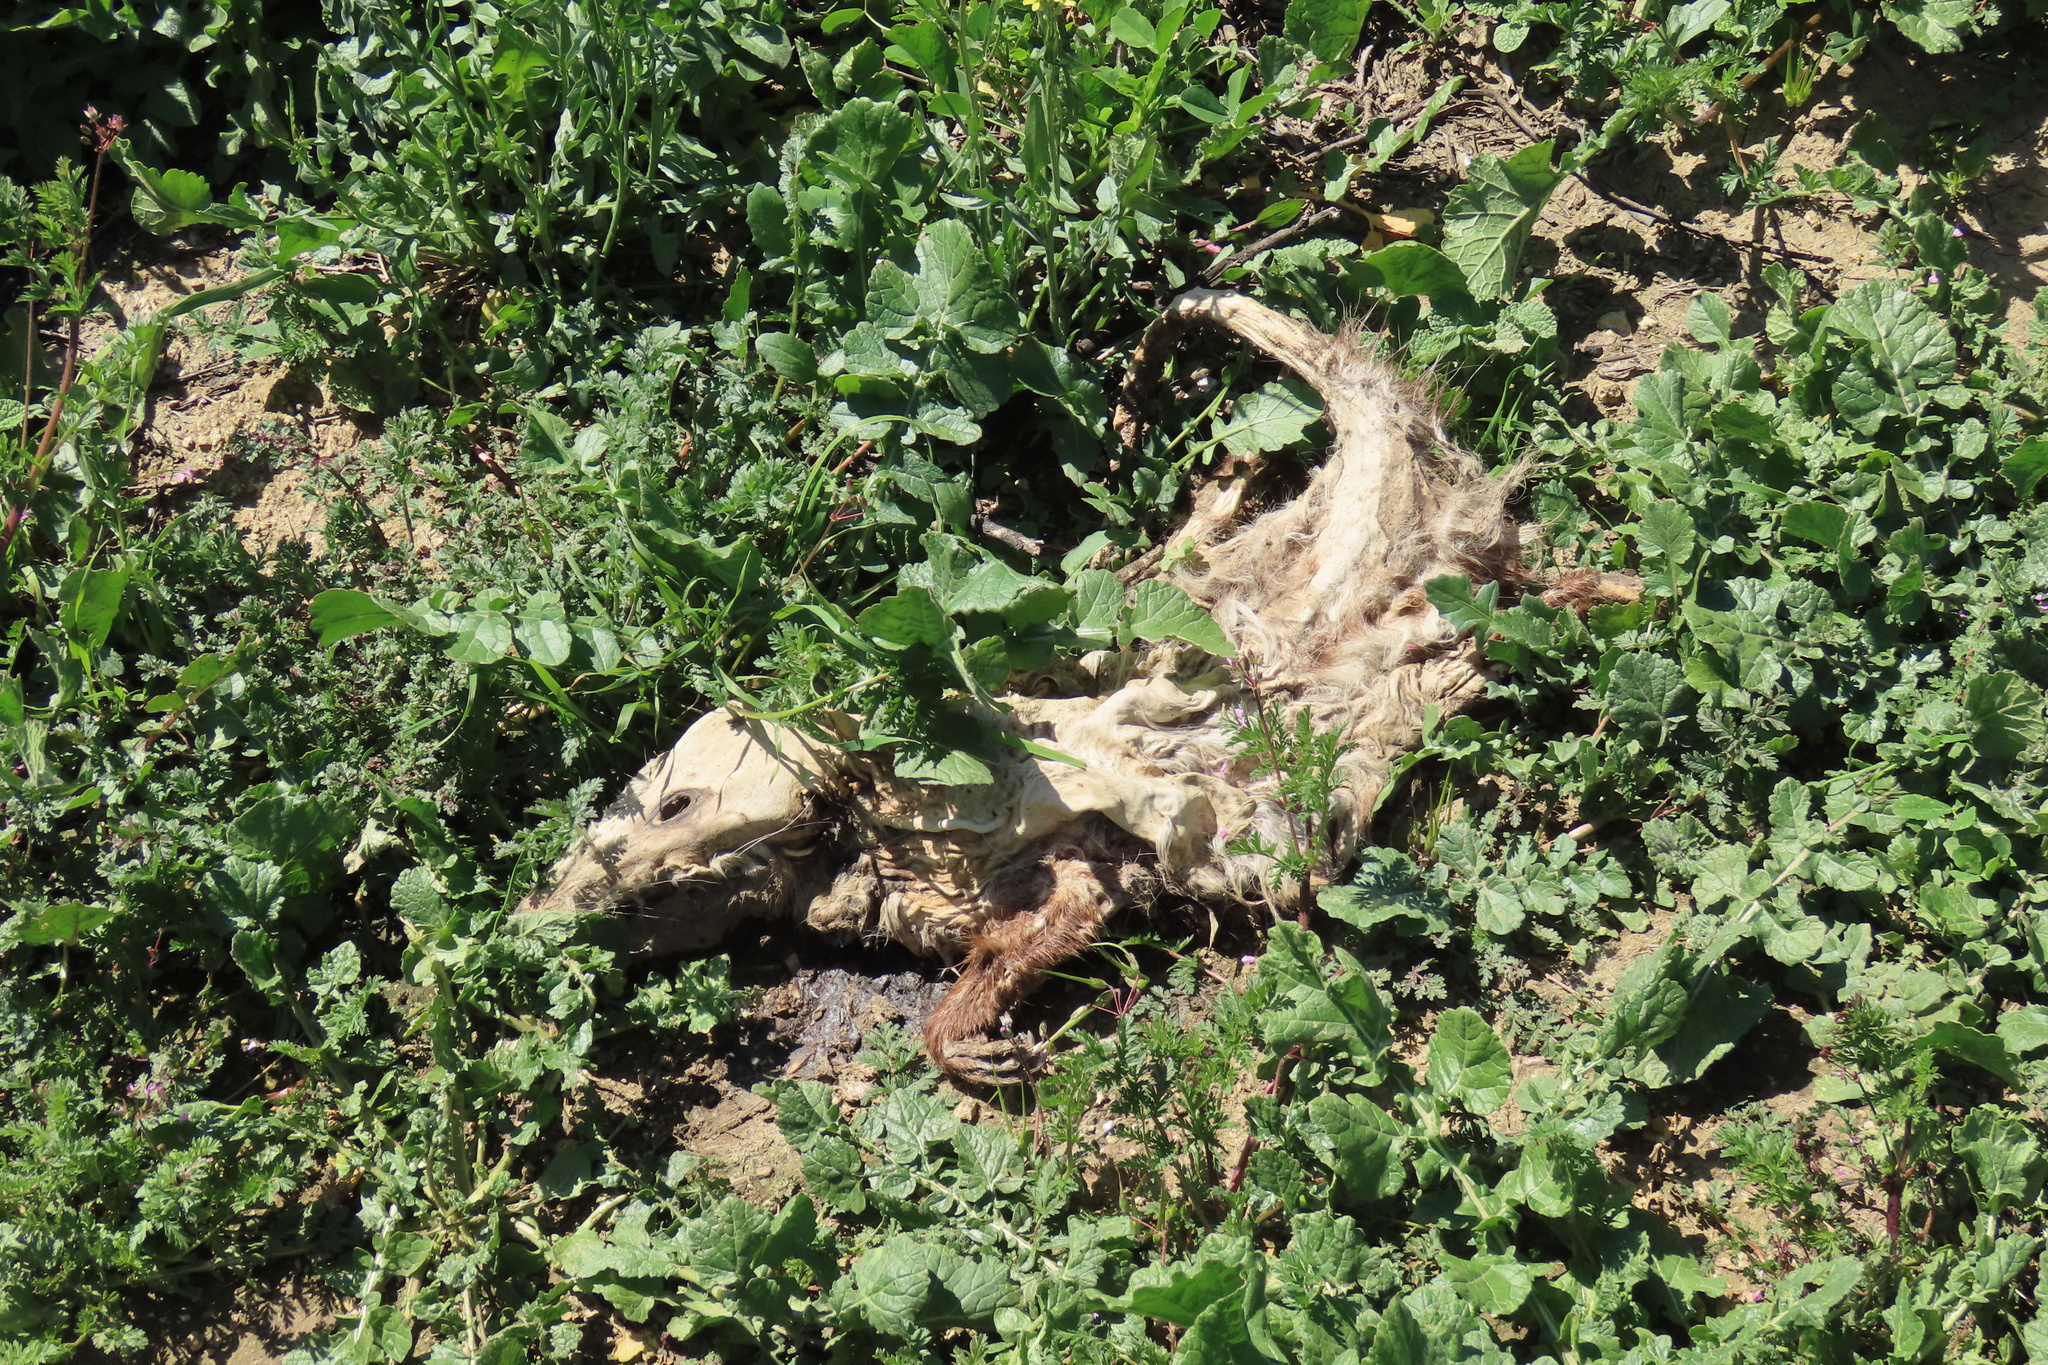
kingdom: Animalia
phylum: Chordata
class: Mammalia
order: Didelphimorphia
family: Didelphidae
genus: Didelphis
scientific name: Didelphis virginiana
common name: Virginia opossum
